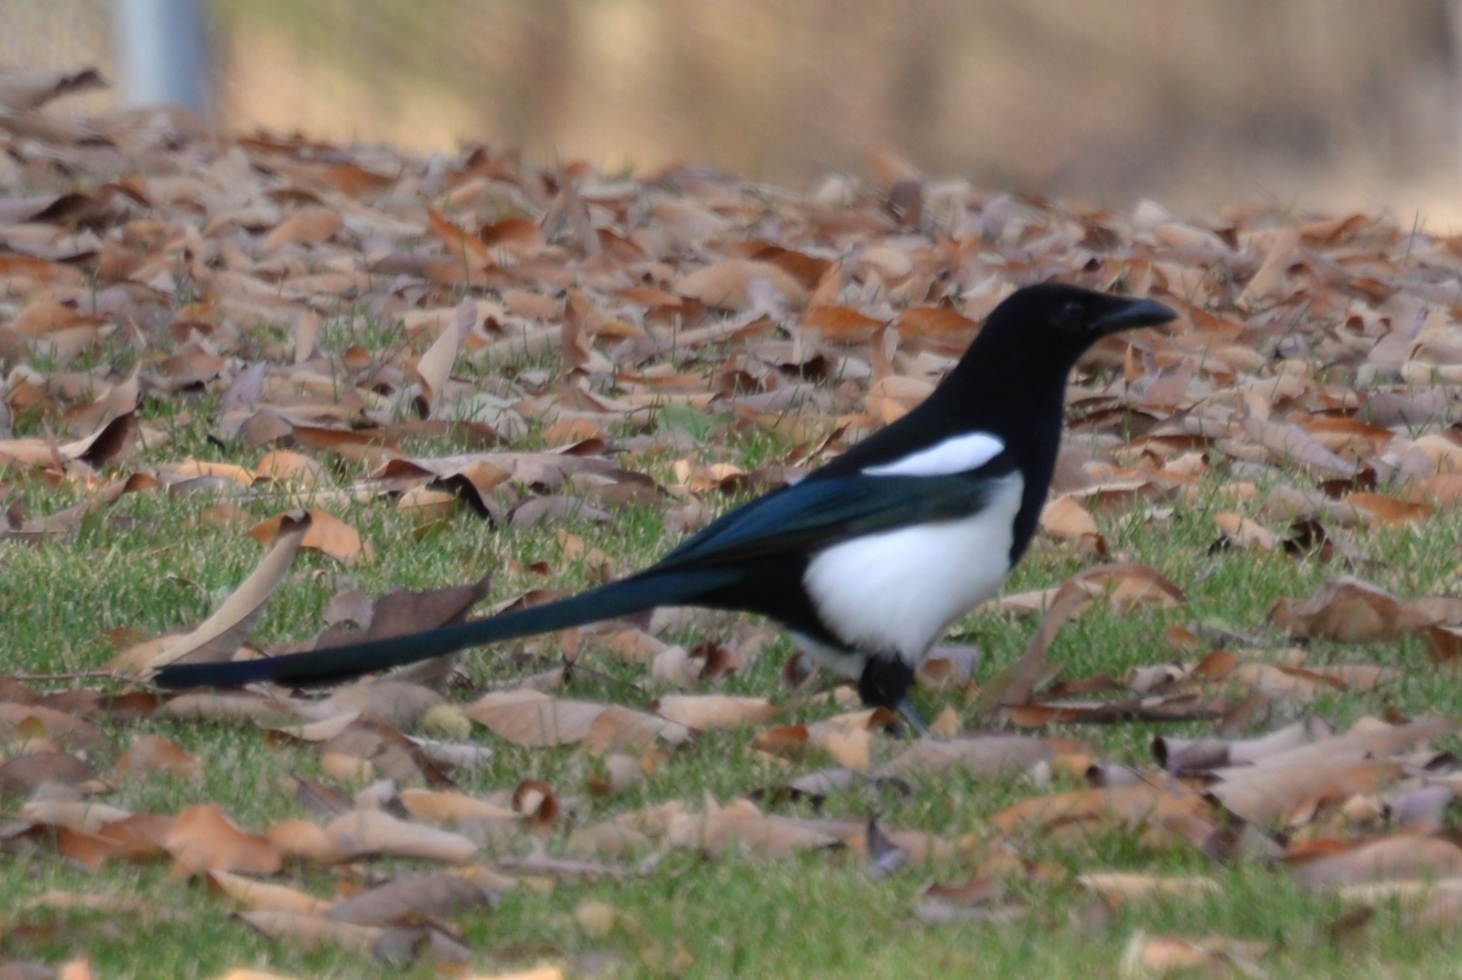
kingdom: Animalia
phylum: Chordata
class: Aves
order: Passeriformes
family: Corvidae
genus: Pica
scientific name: Pica hudsonia
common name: Black-billed magpie
